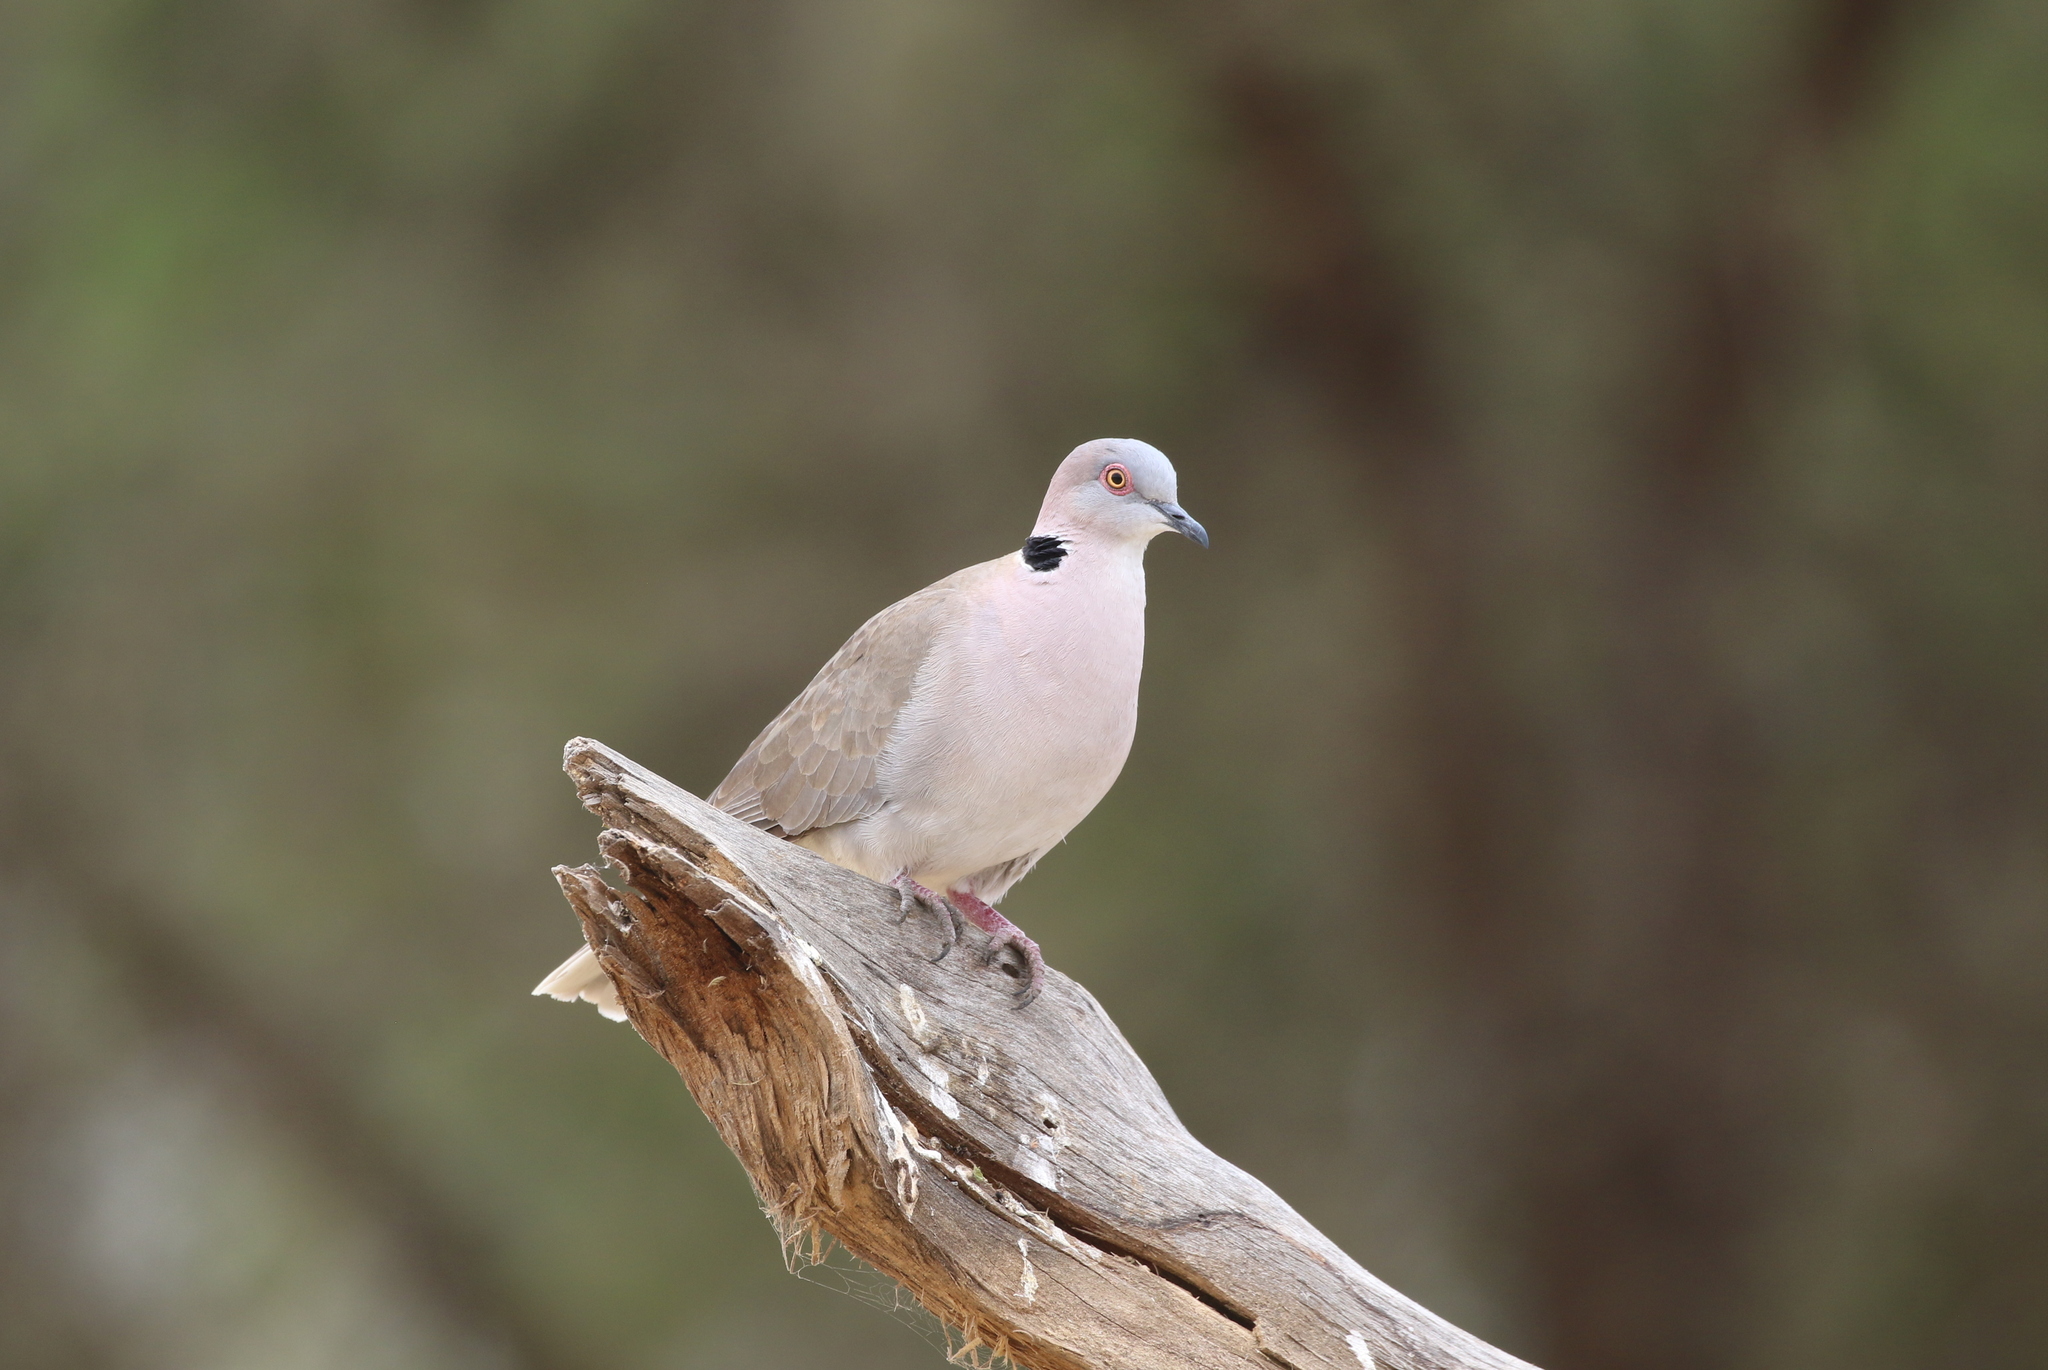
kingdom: Animalia
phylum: Chordata
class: Aves
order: Columbiformes
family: Columbidae
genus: Streptopelia
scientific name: Streptopelia decipiens
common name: Mourning collared dove
